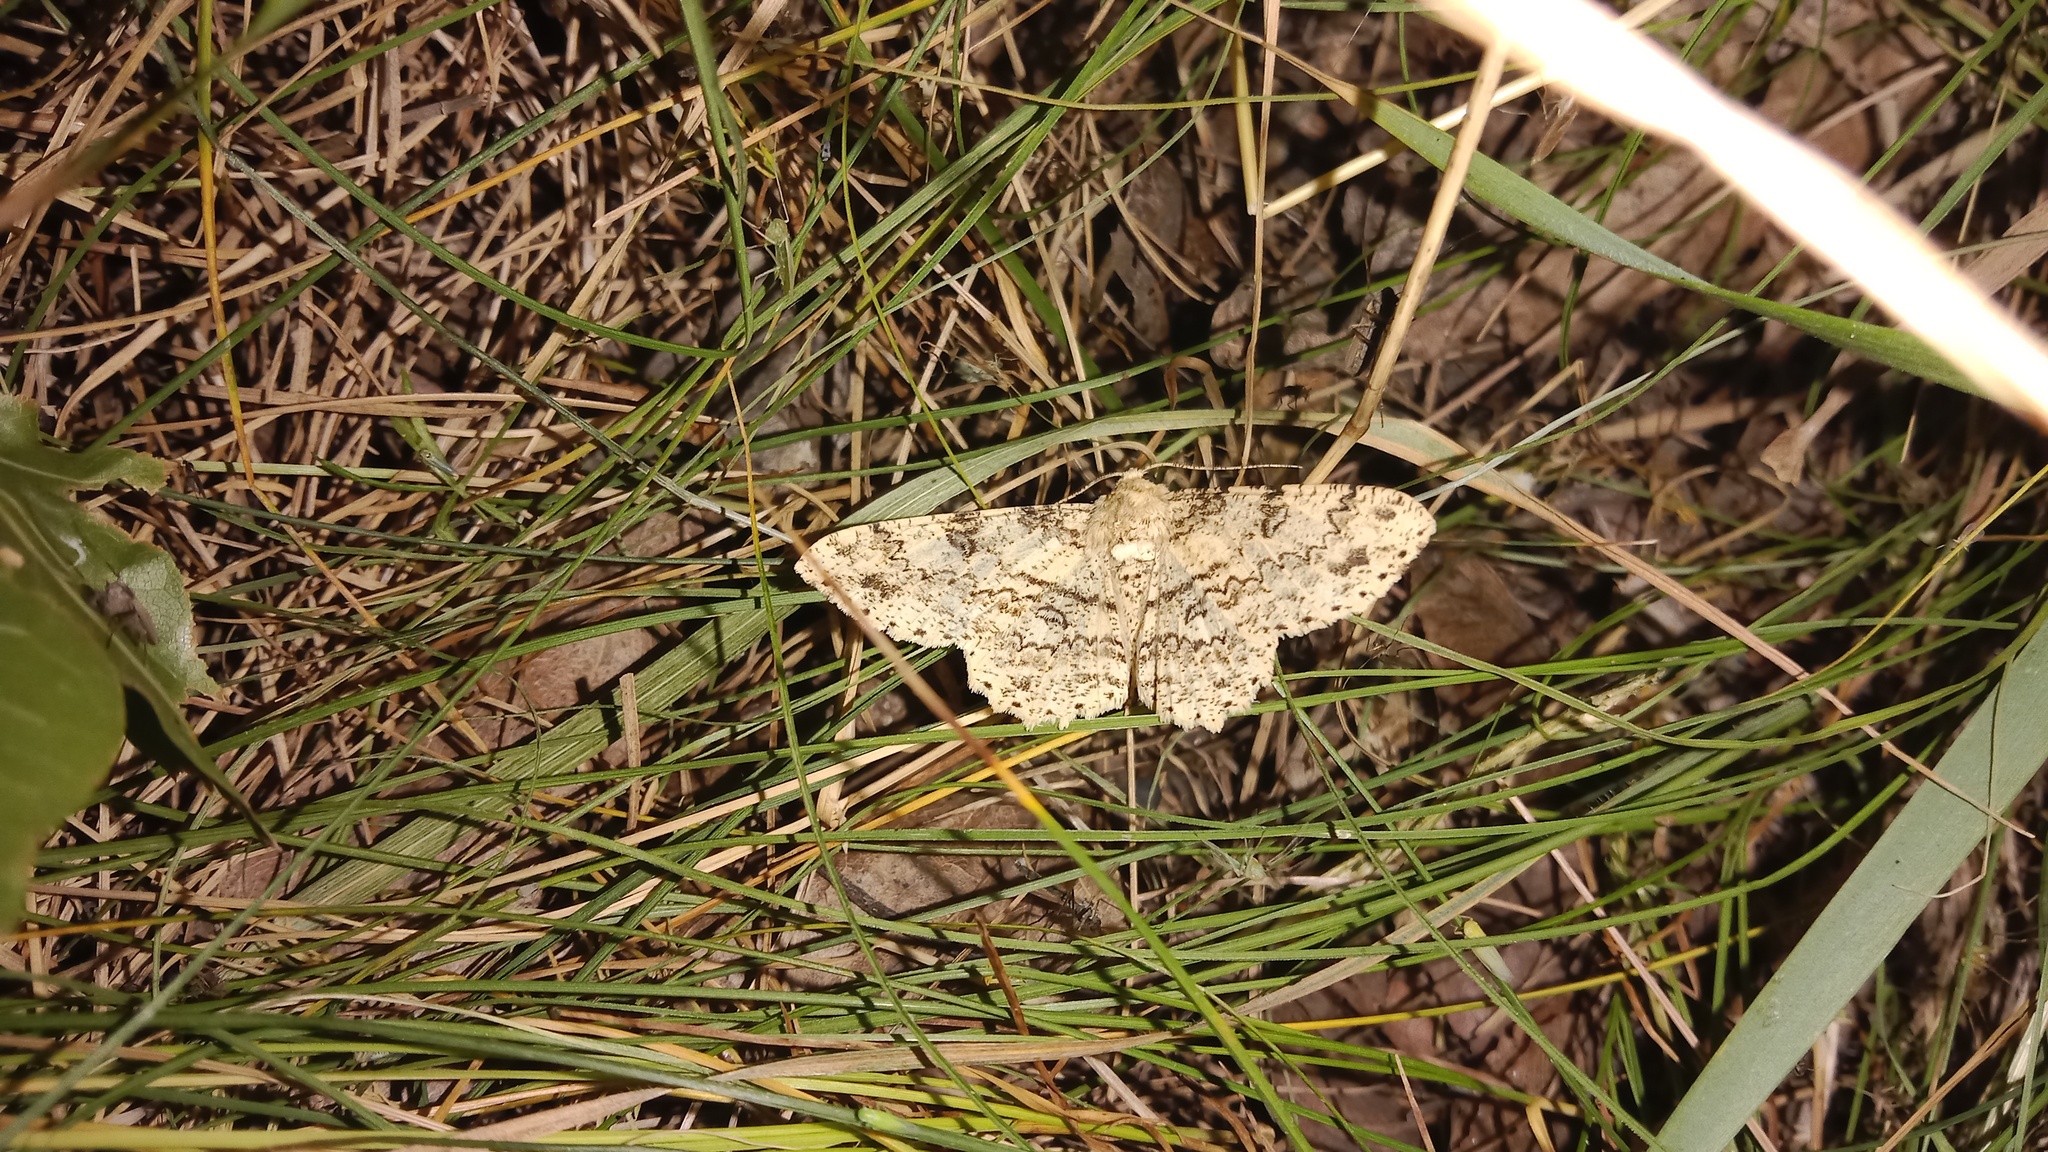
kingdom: Animalia
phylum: Arthropoda
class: Insecta
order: Lepidoptera
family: Geometridae
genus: Ascotis
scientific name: Ascotis selenaria
